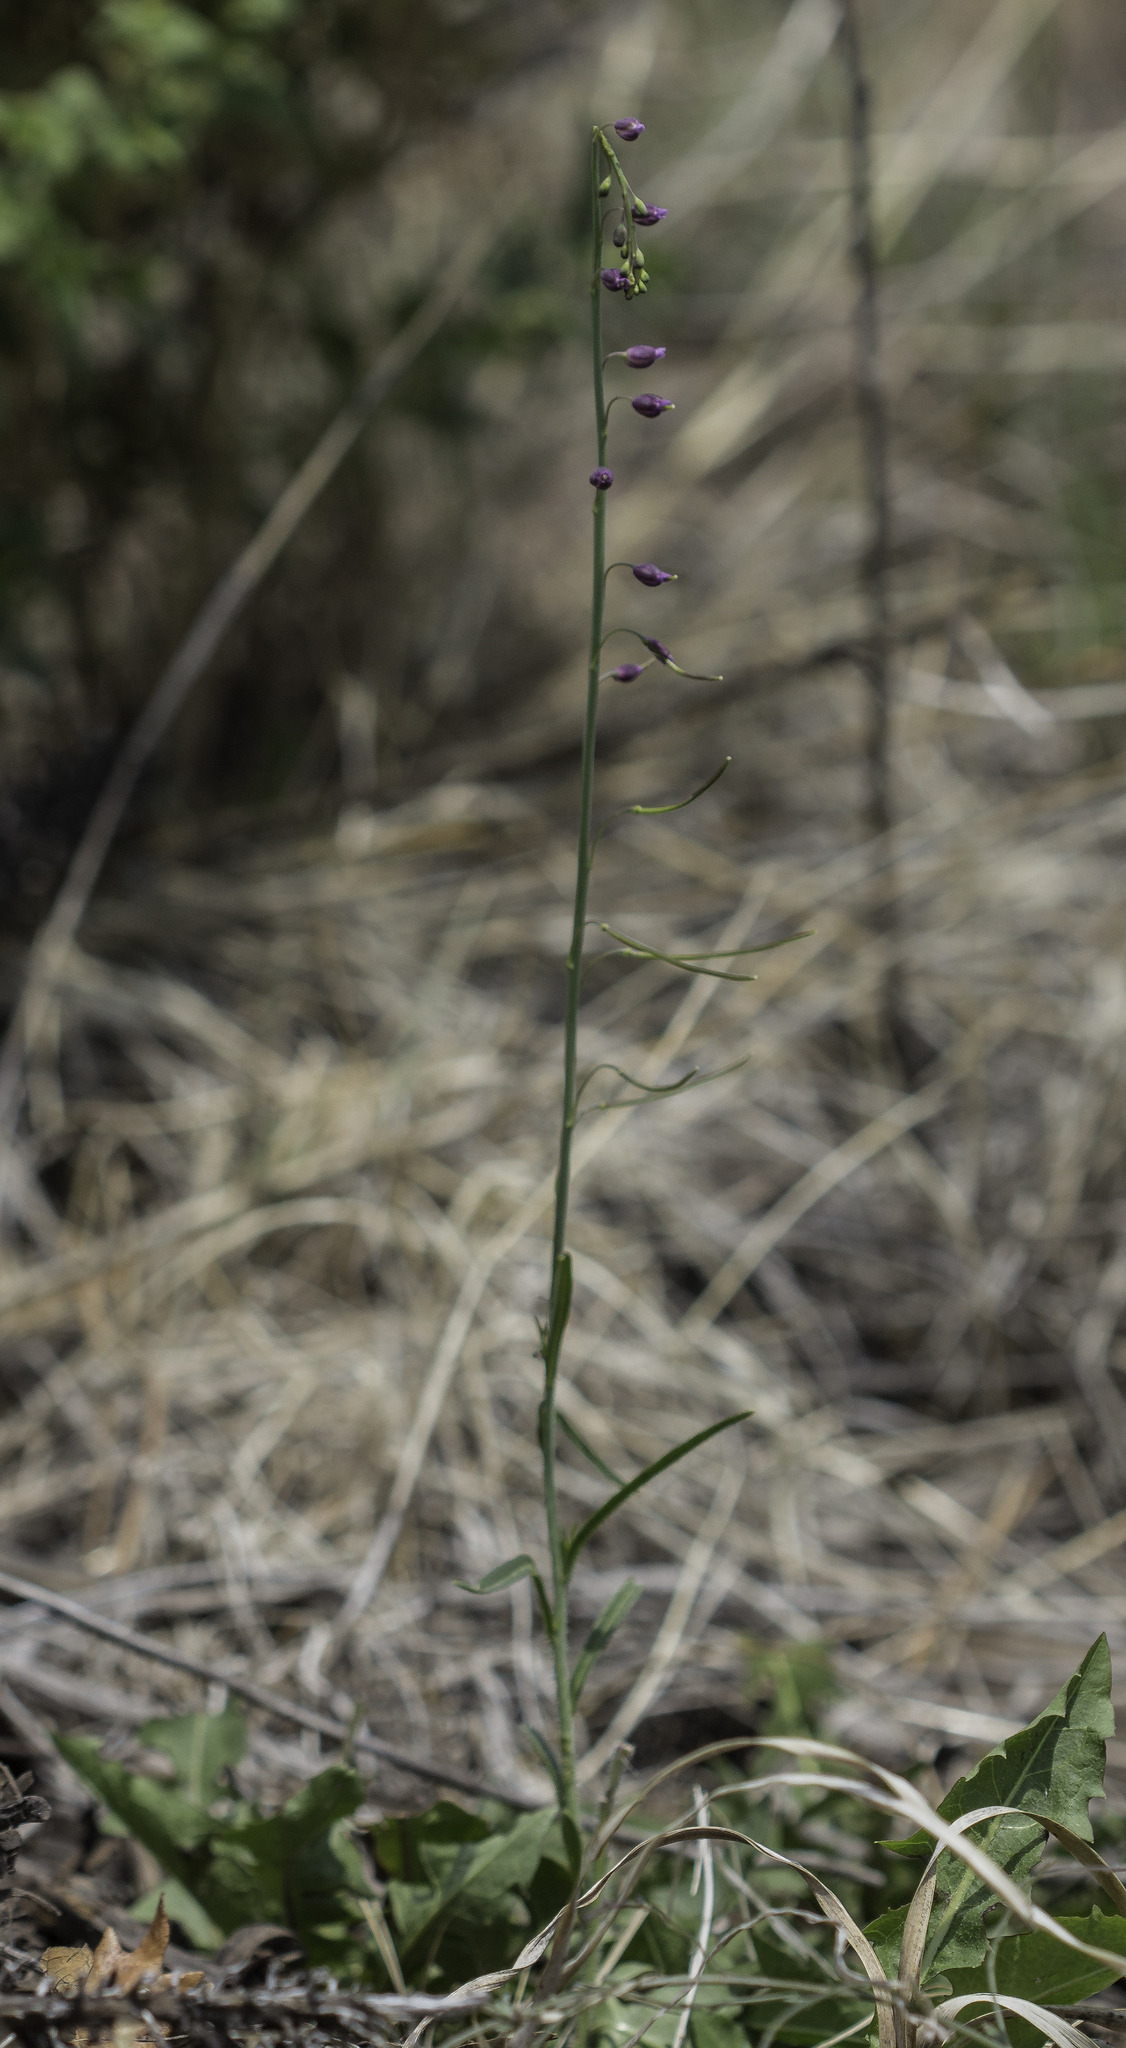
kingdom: Plantae
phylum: Tracheophyta
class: Magnoliopsida
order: Brassicales
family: Brassicaceae
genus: Pennellia
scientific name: Pennellia longifolia
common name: Longleaf mock thelypody
